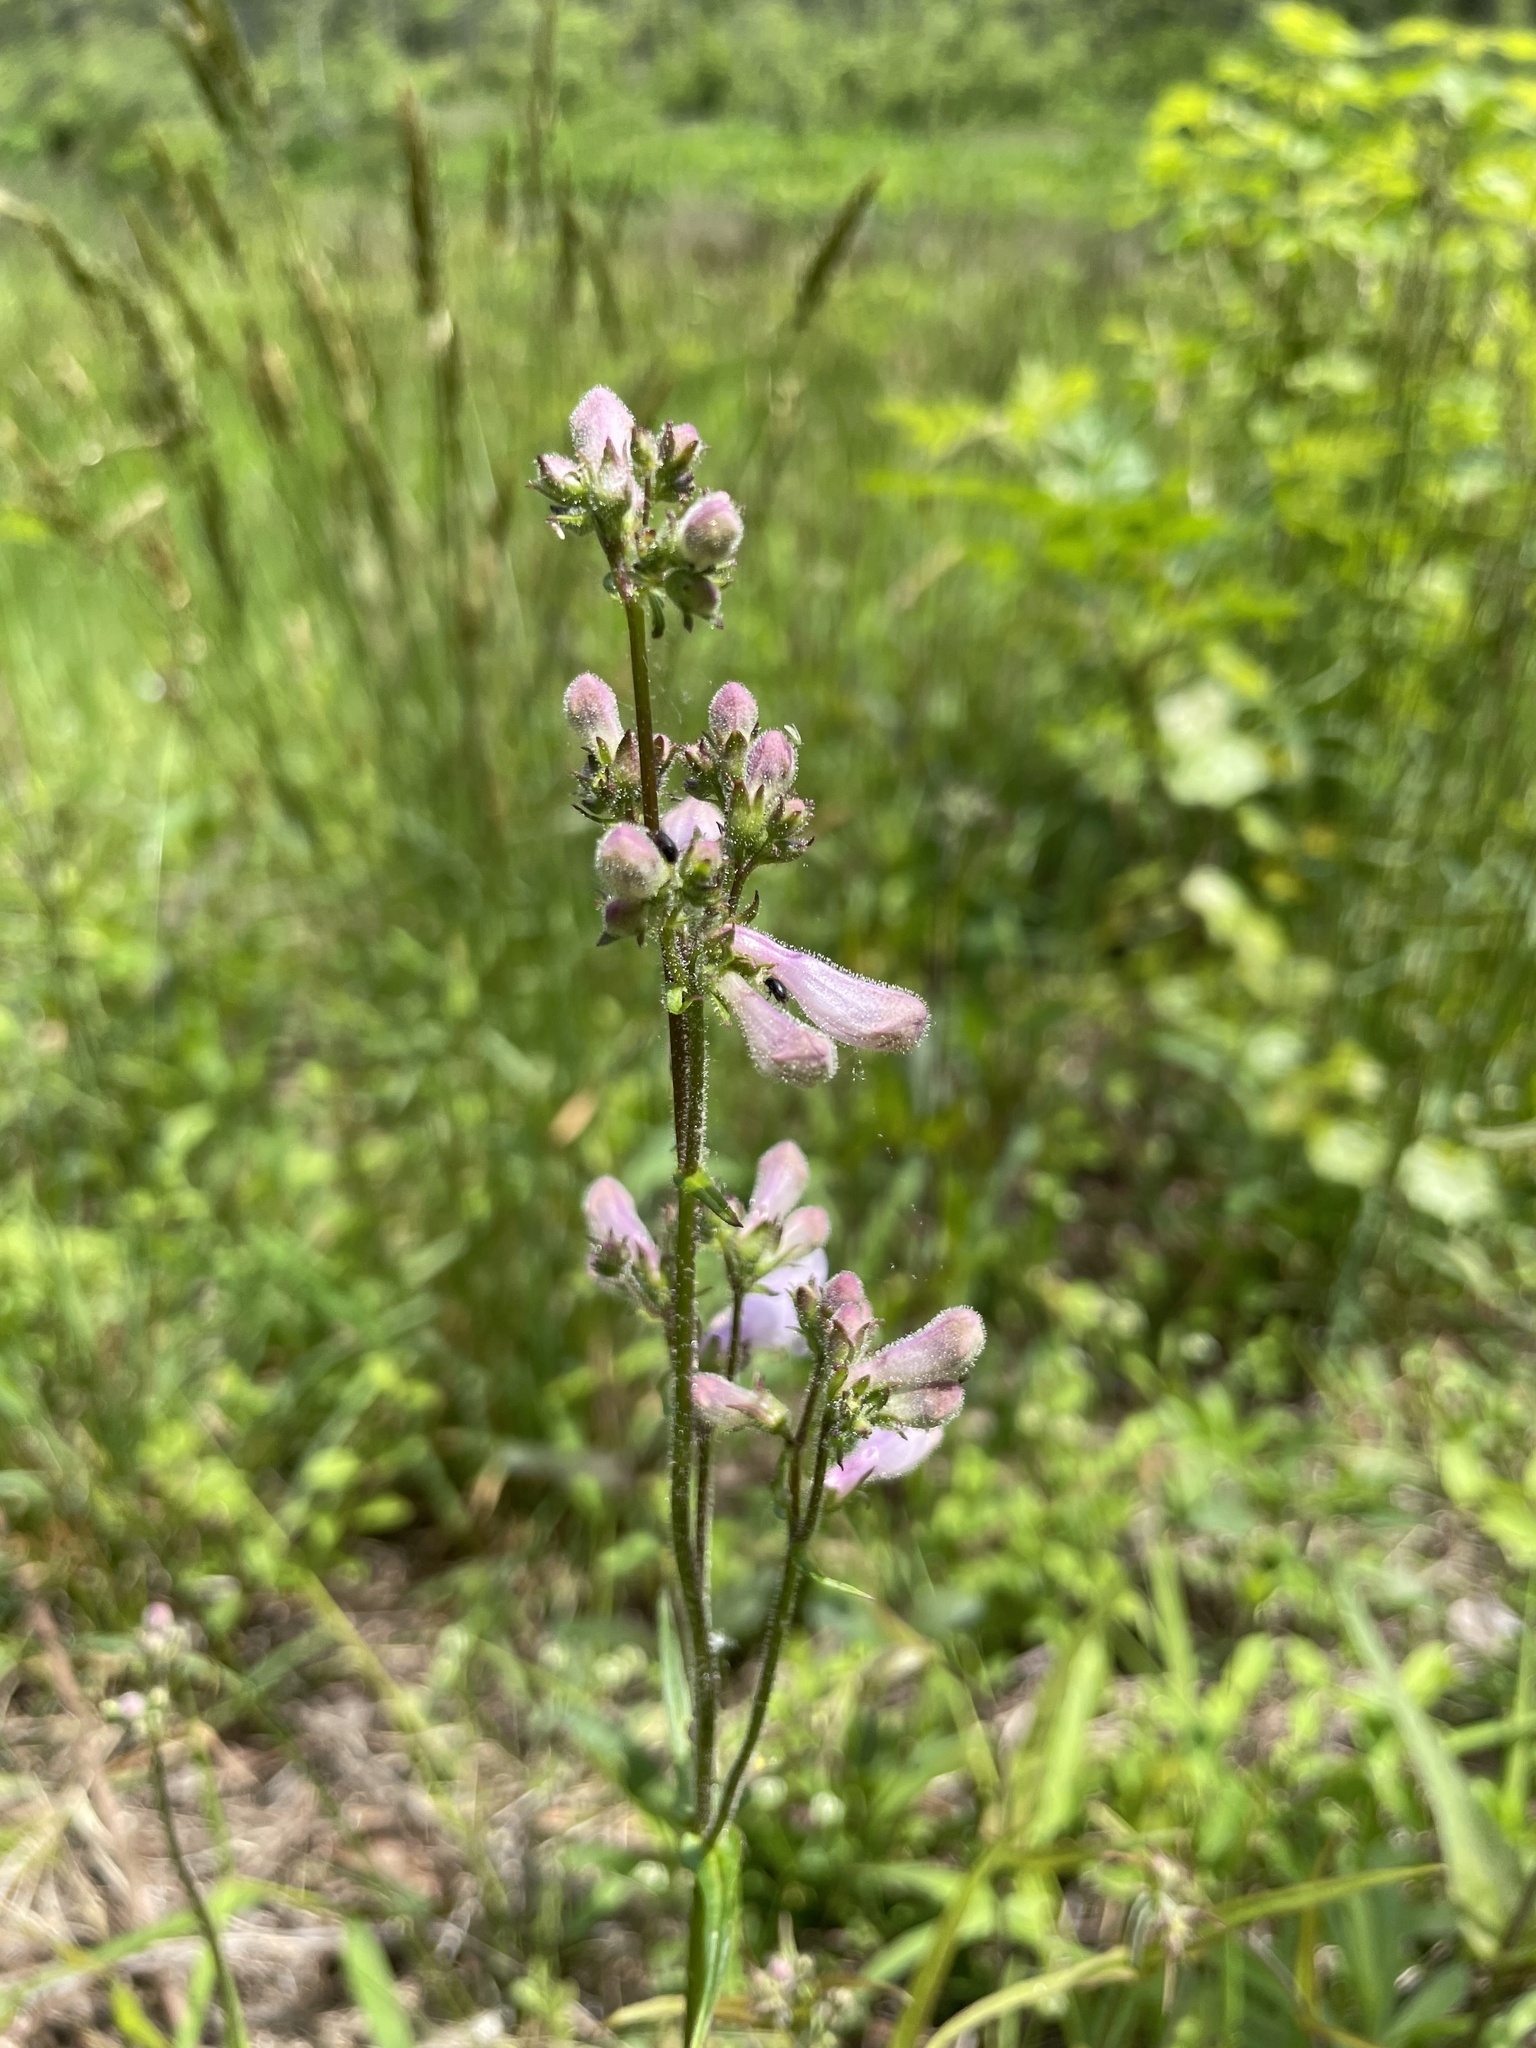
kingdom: Plantae
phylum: Tracheophyta
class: Magnoliopsida
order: Lamiales
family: Plantaginaceae
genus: Penstemon
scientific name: Penstemon australis
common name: Southeastern beardtongue
